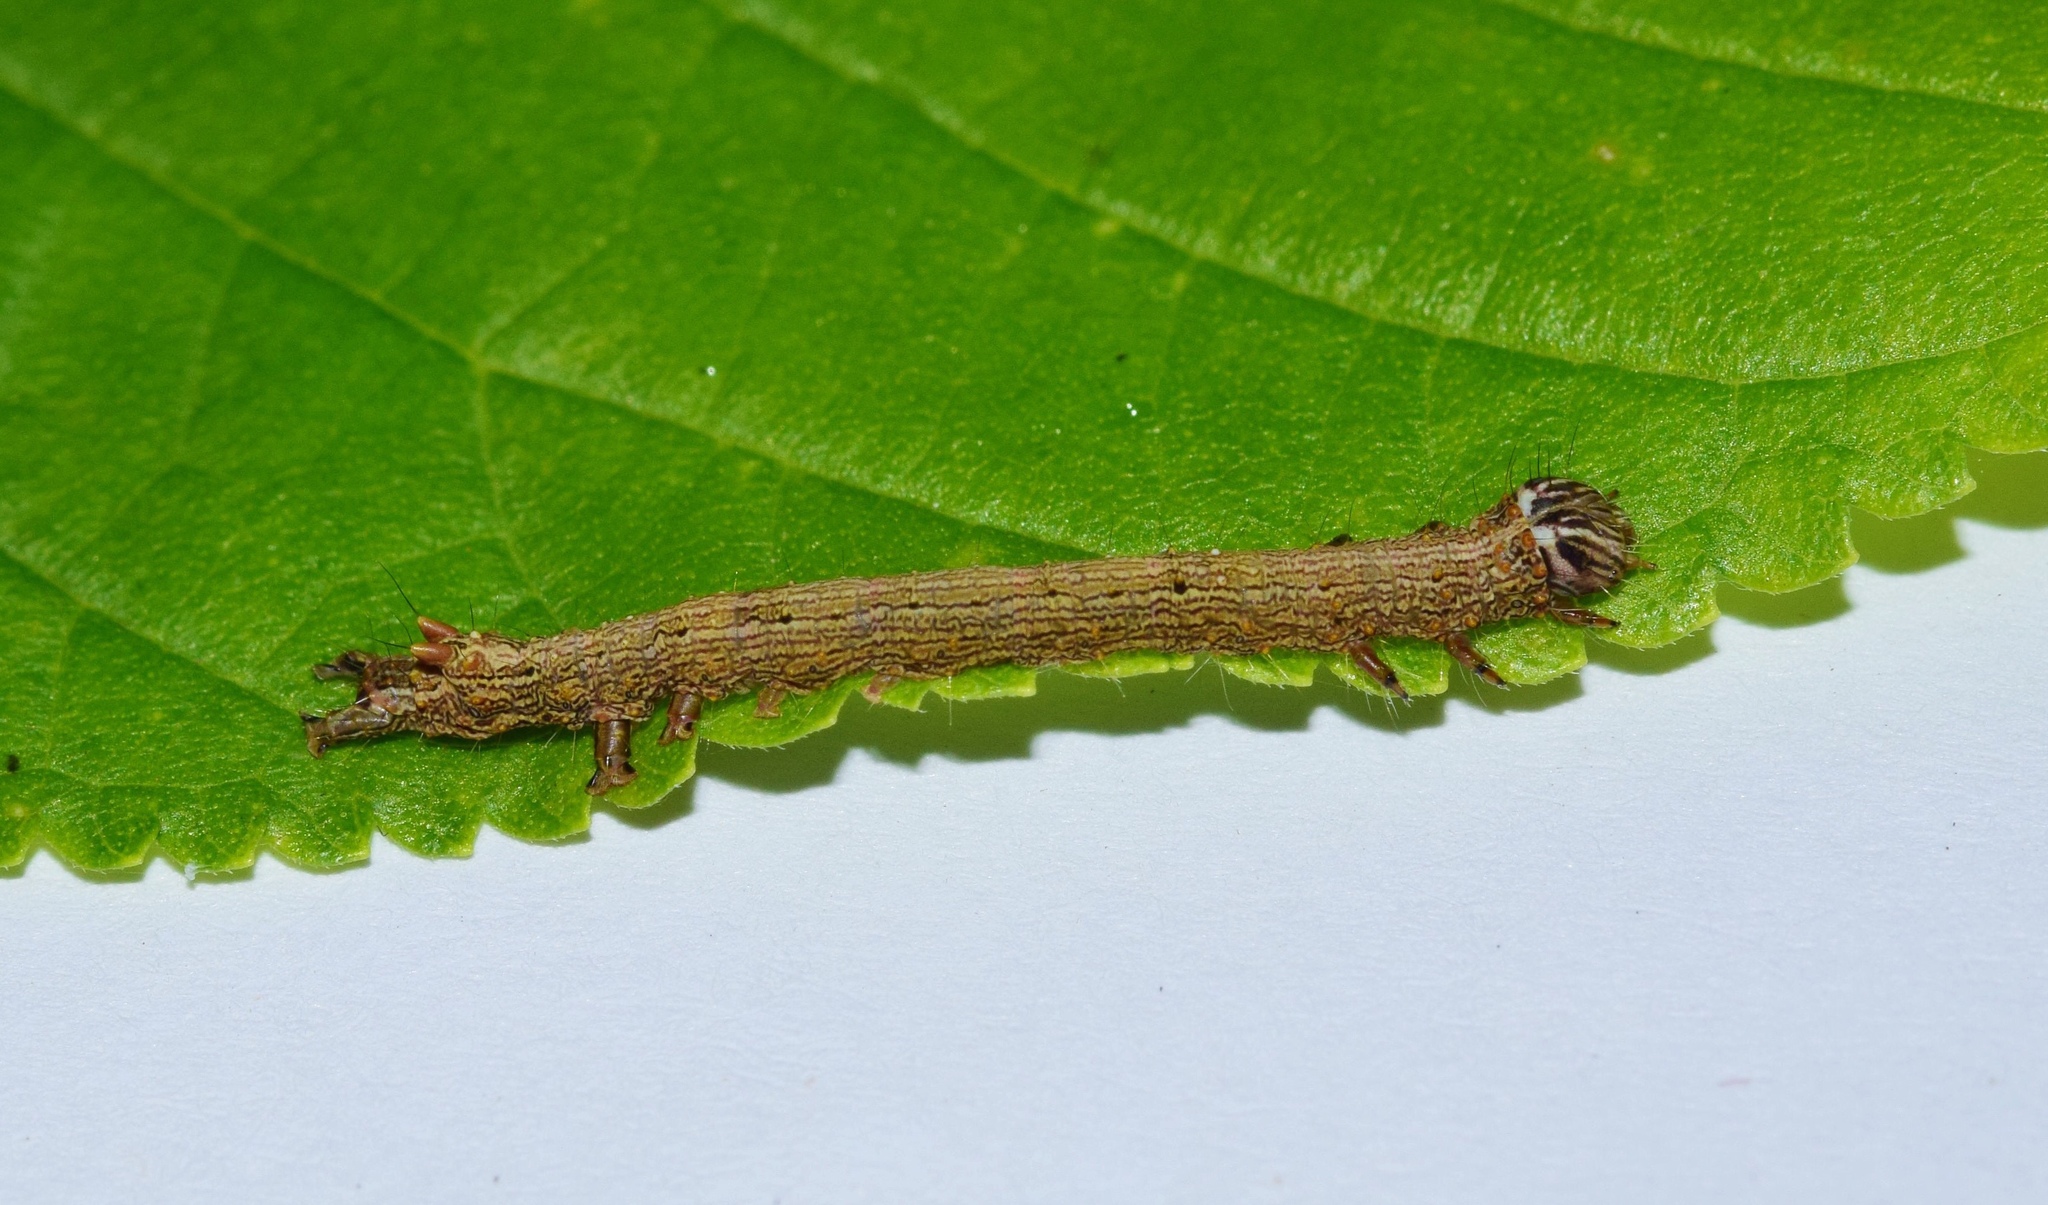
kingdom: Animalia
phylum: Arthropoda
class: Insecta
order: Lepidoptera
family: Erebidae
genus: Catephia
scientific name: Catephia amplificans
